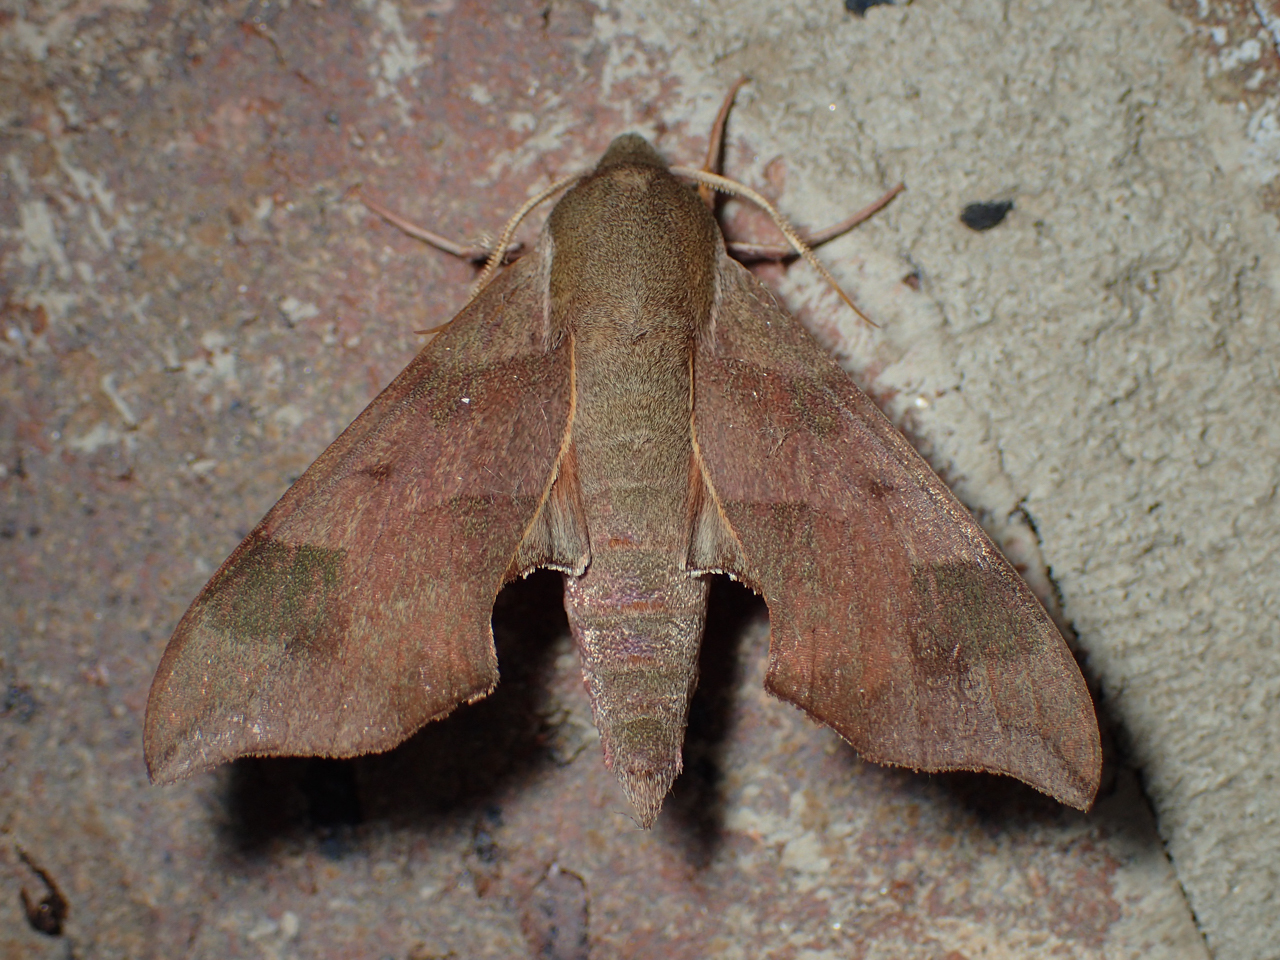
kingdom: Animalia
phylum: Arthropoda
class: Insecta
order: Lepidoptera
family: Sphingidae
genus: Darapsa
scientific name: Darapsa myron
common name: Hog sphinx
